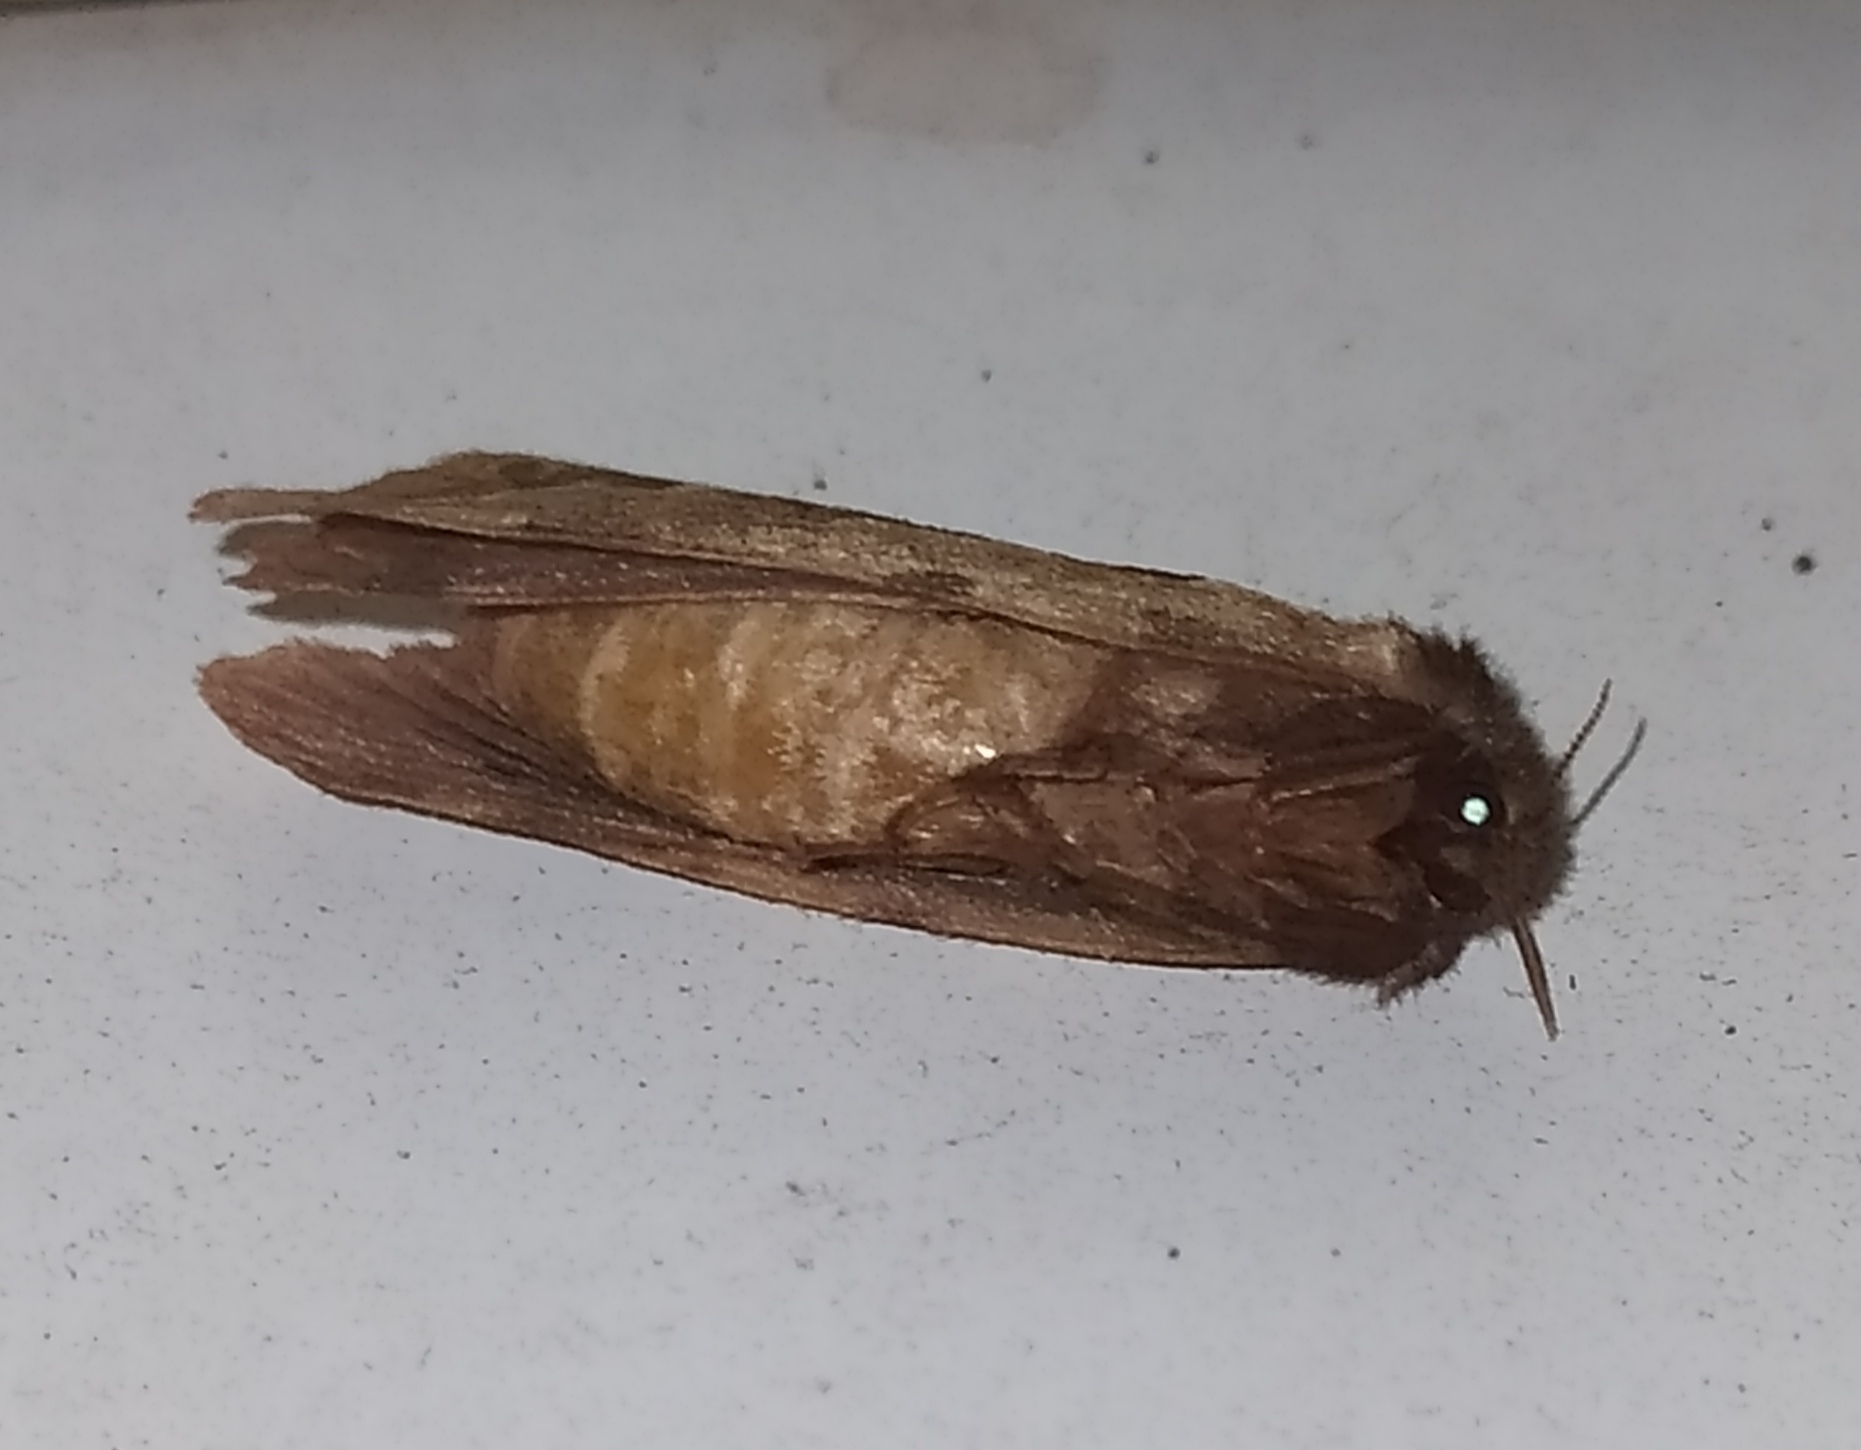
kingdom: Animalia
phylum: Arthropoda
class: Insecta
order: Lepidoptera
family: Hepialidae
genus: Triodia
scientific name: Triodia sylvina
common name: Orange swift
